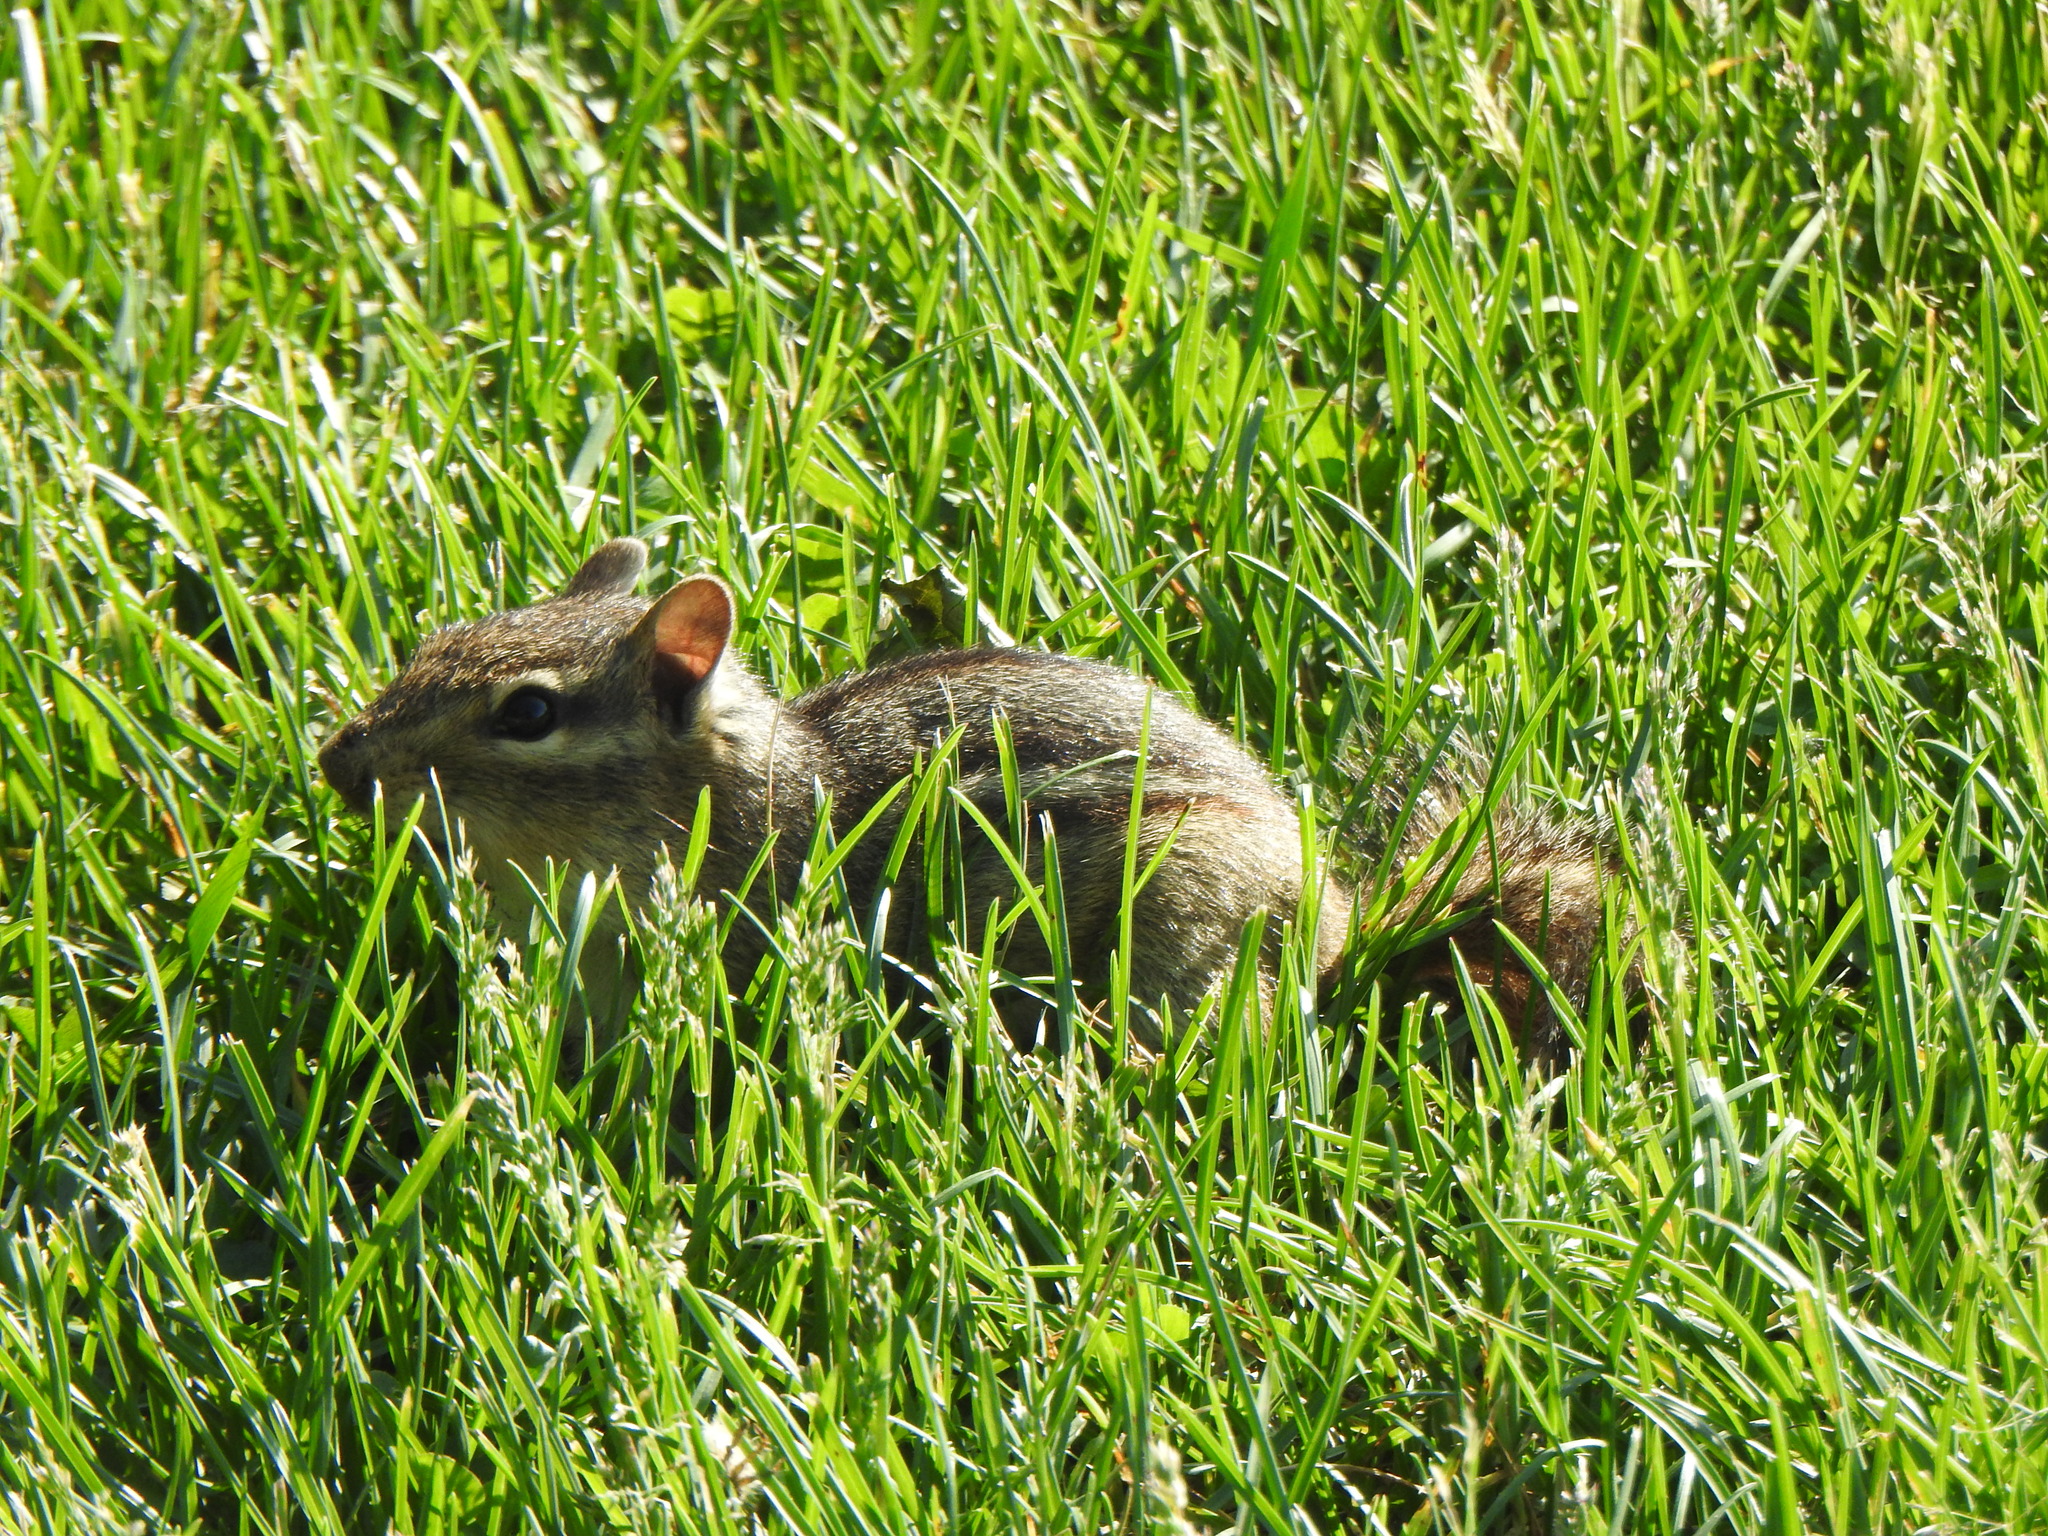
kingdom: Animalia
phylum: Chordata
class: Mammalia
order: Rodentia
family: Sciuridae
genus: Tamias
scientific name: Tamias striatus
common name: Eastern chipmunk
